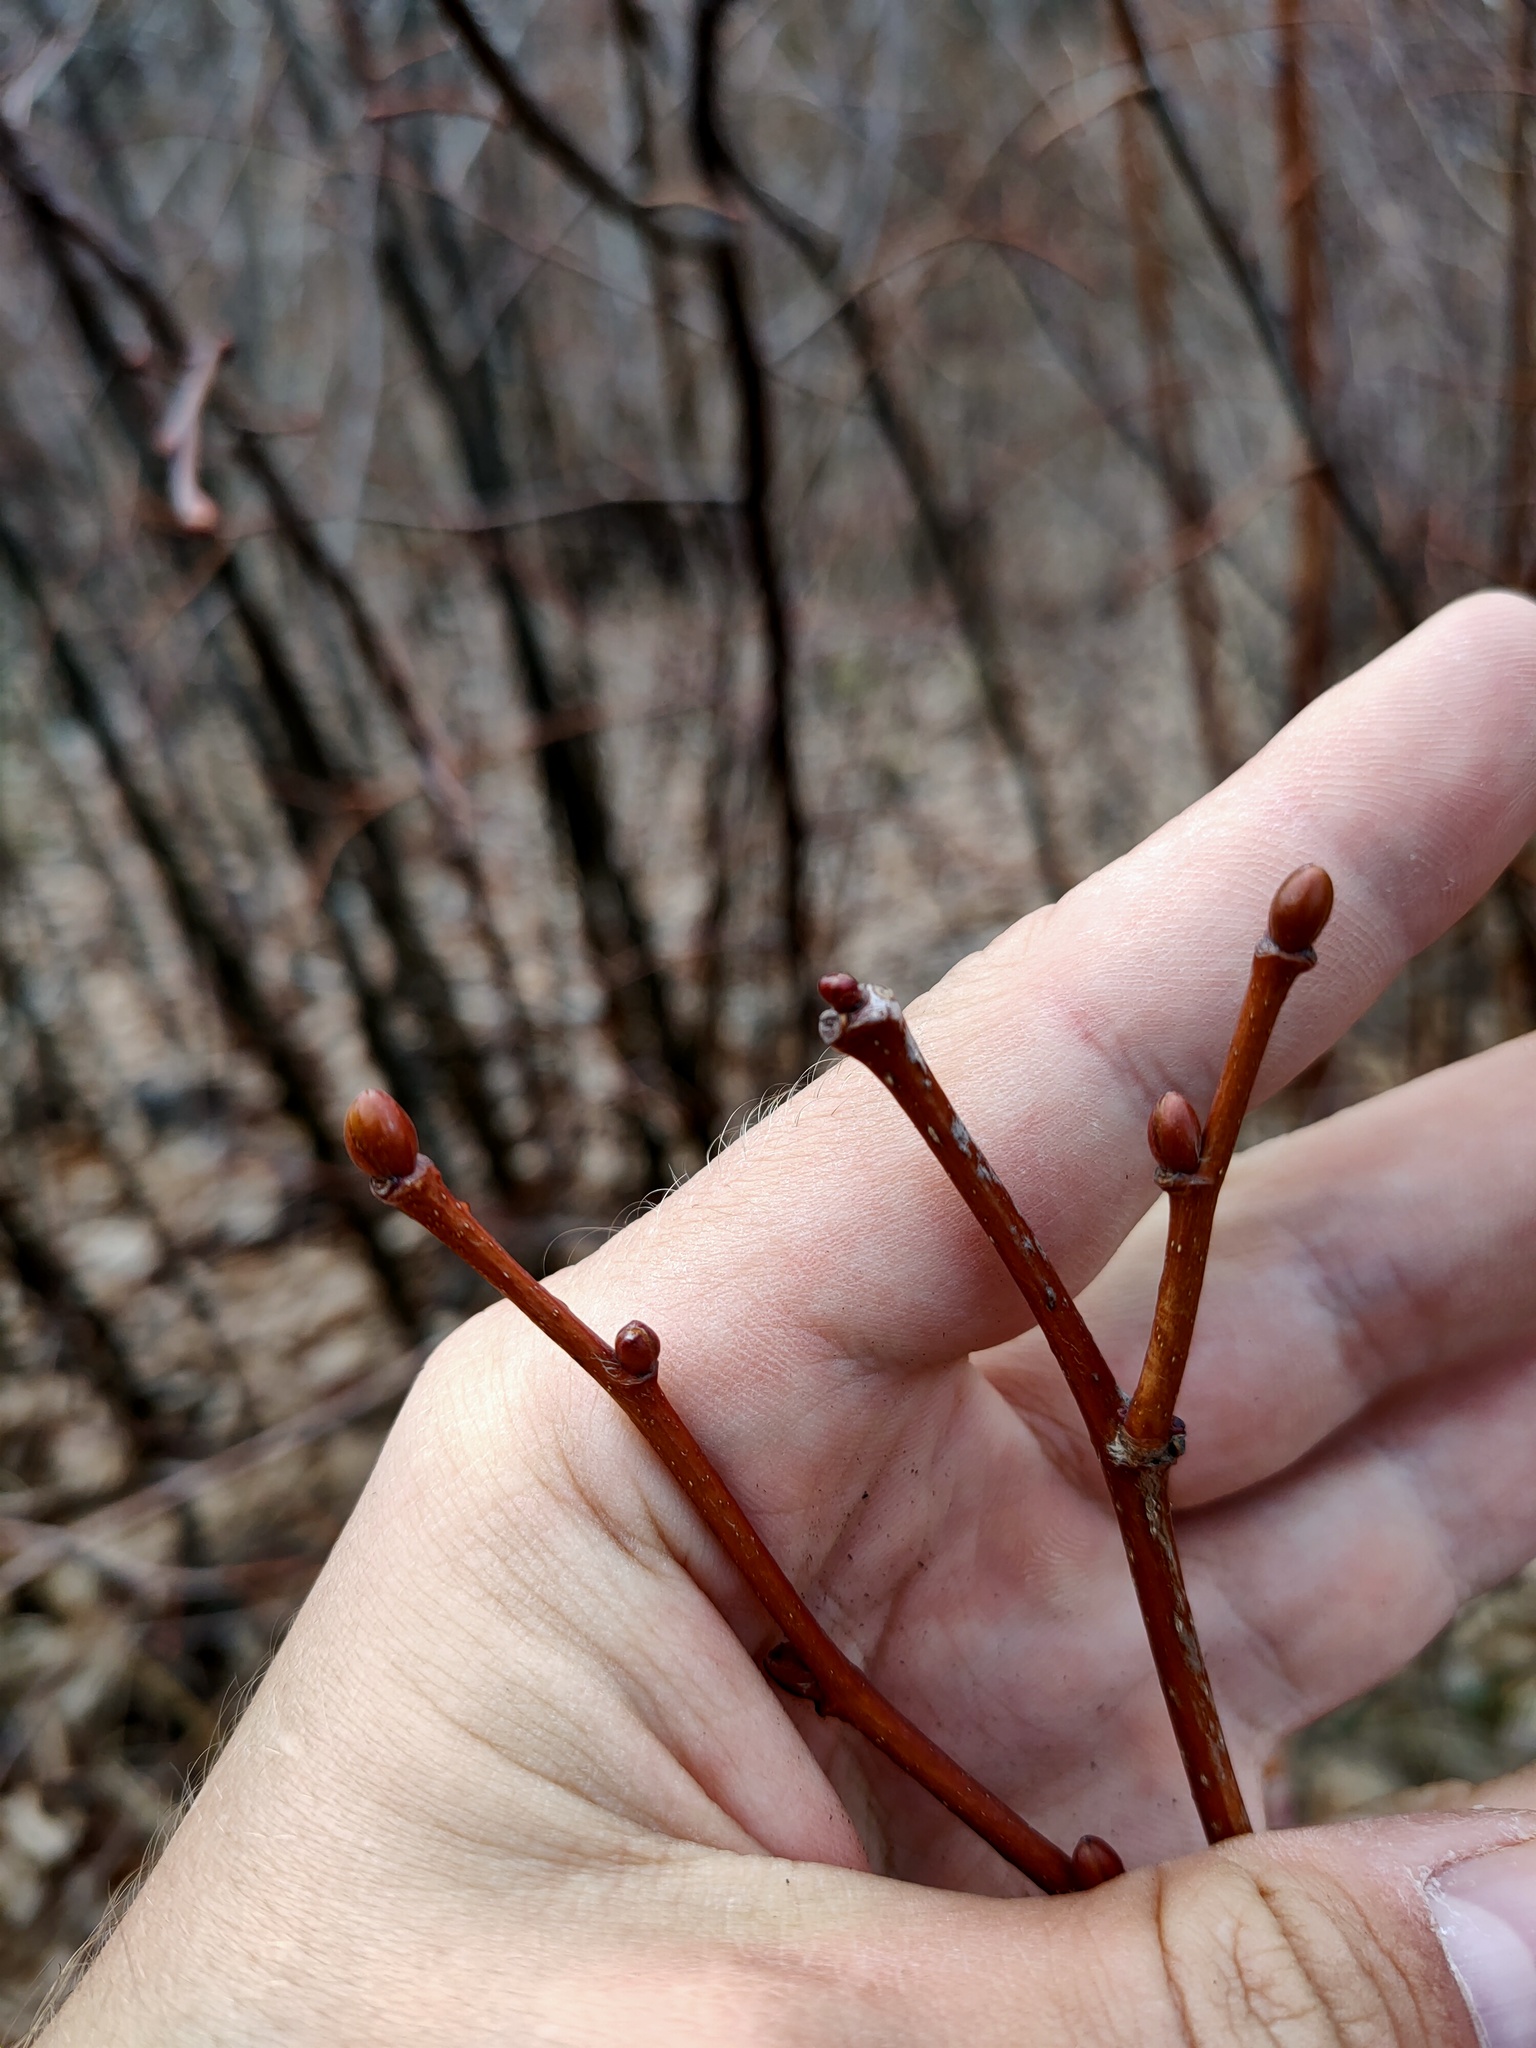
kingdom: Plantae
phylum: Tracheophyta
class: Magnoliopsida
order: Malvales
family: Malvaceae
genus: Tilia
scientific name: Tilia cordata
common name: Small-leaved lime
